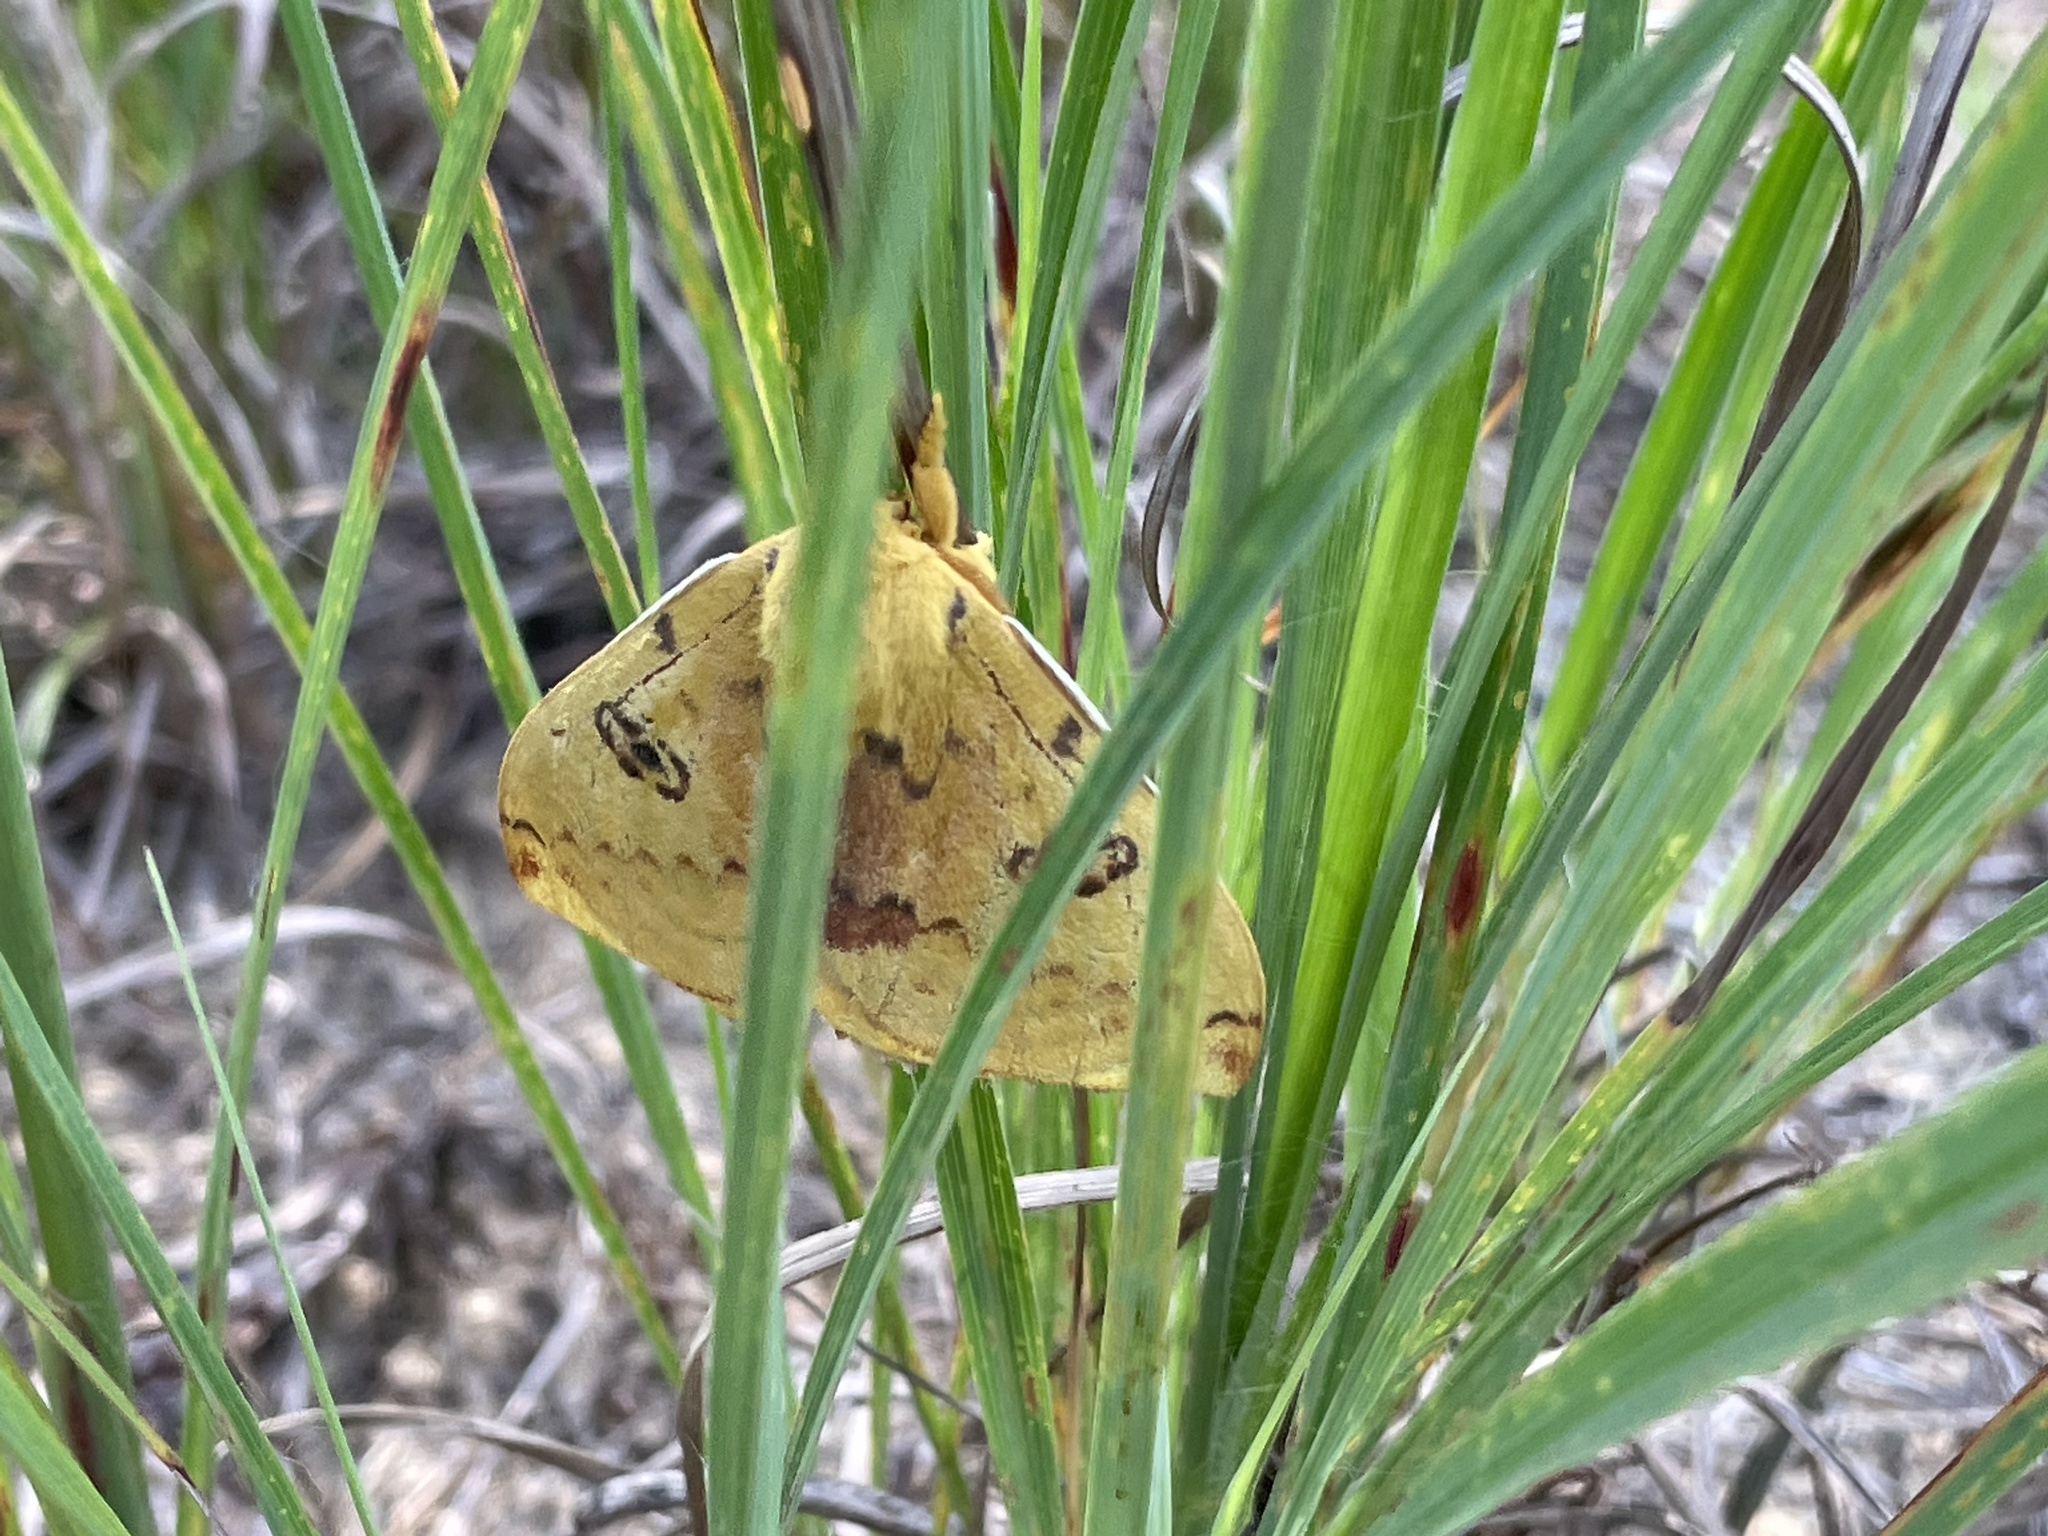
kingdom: Animalia
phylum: Arthropoda
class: Insecta
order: Lepidoptera
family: Saturniidae
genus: Automeris
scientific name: Automeris io
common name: Io moth
